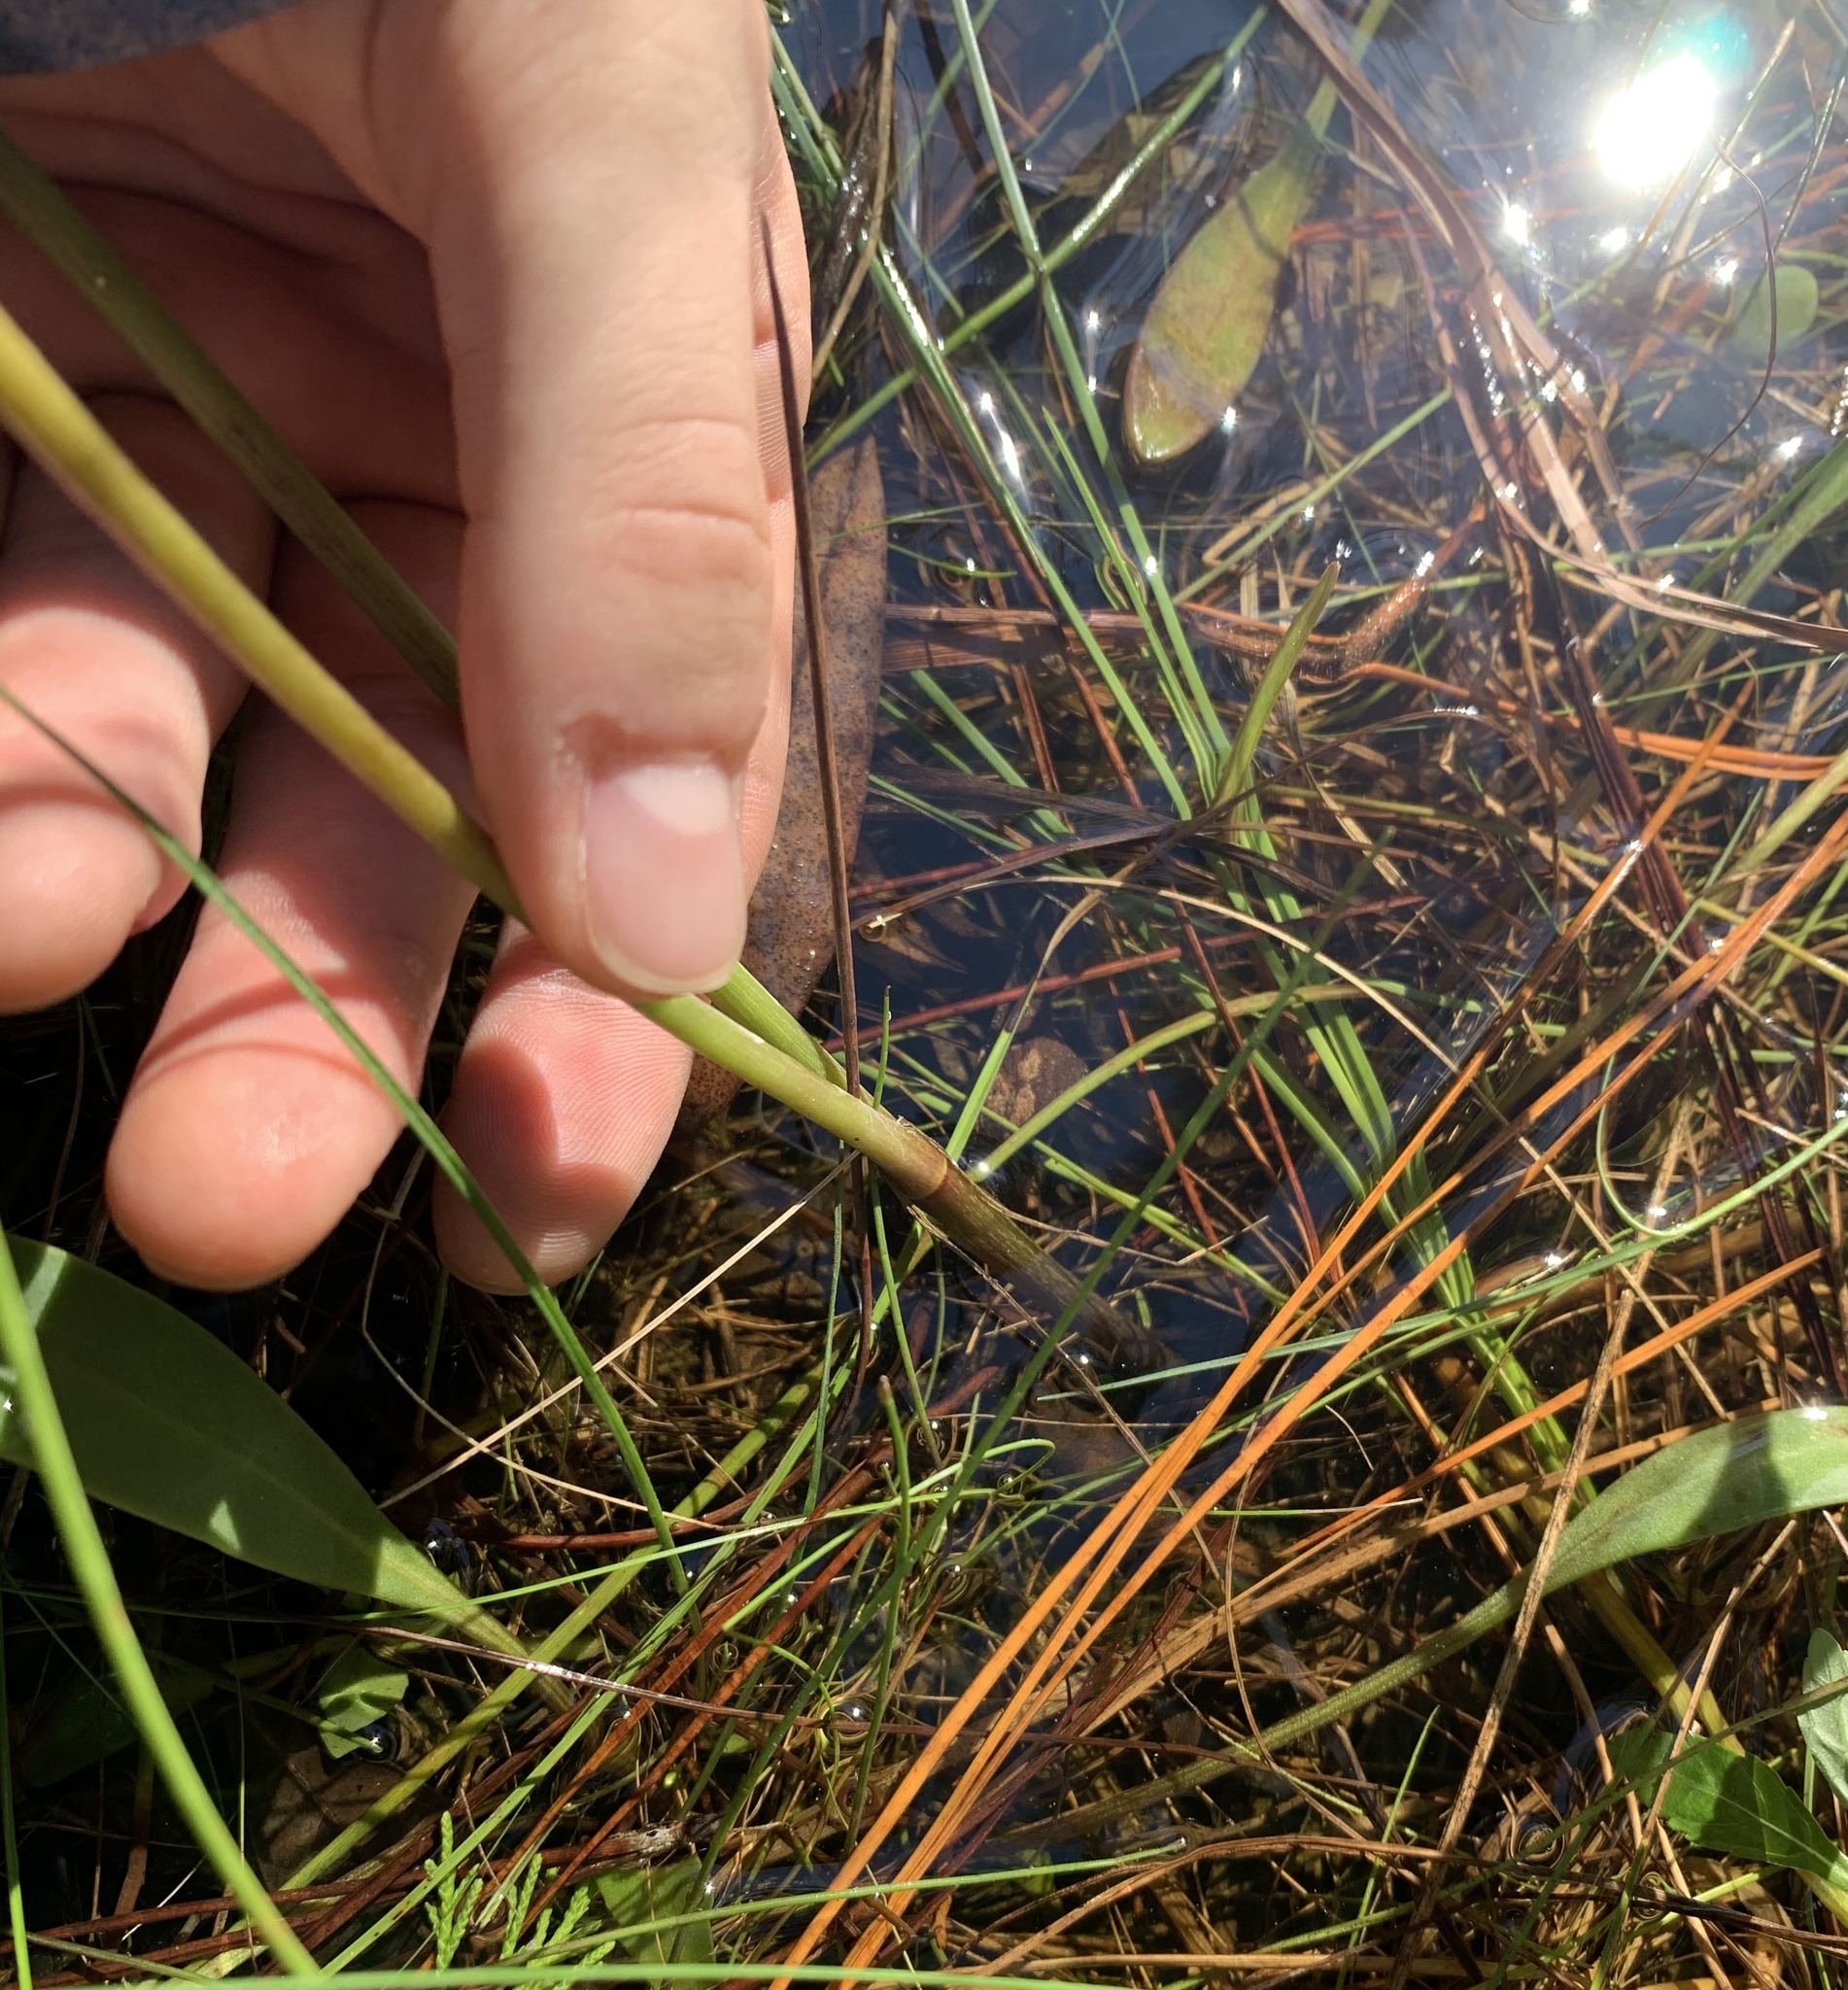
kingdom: Plantae
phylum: Tracheophyta
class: Magnoliopsida
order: Asterales
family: Asteraceae
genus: Coreopsis
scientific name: Coreopsis gladiata
